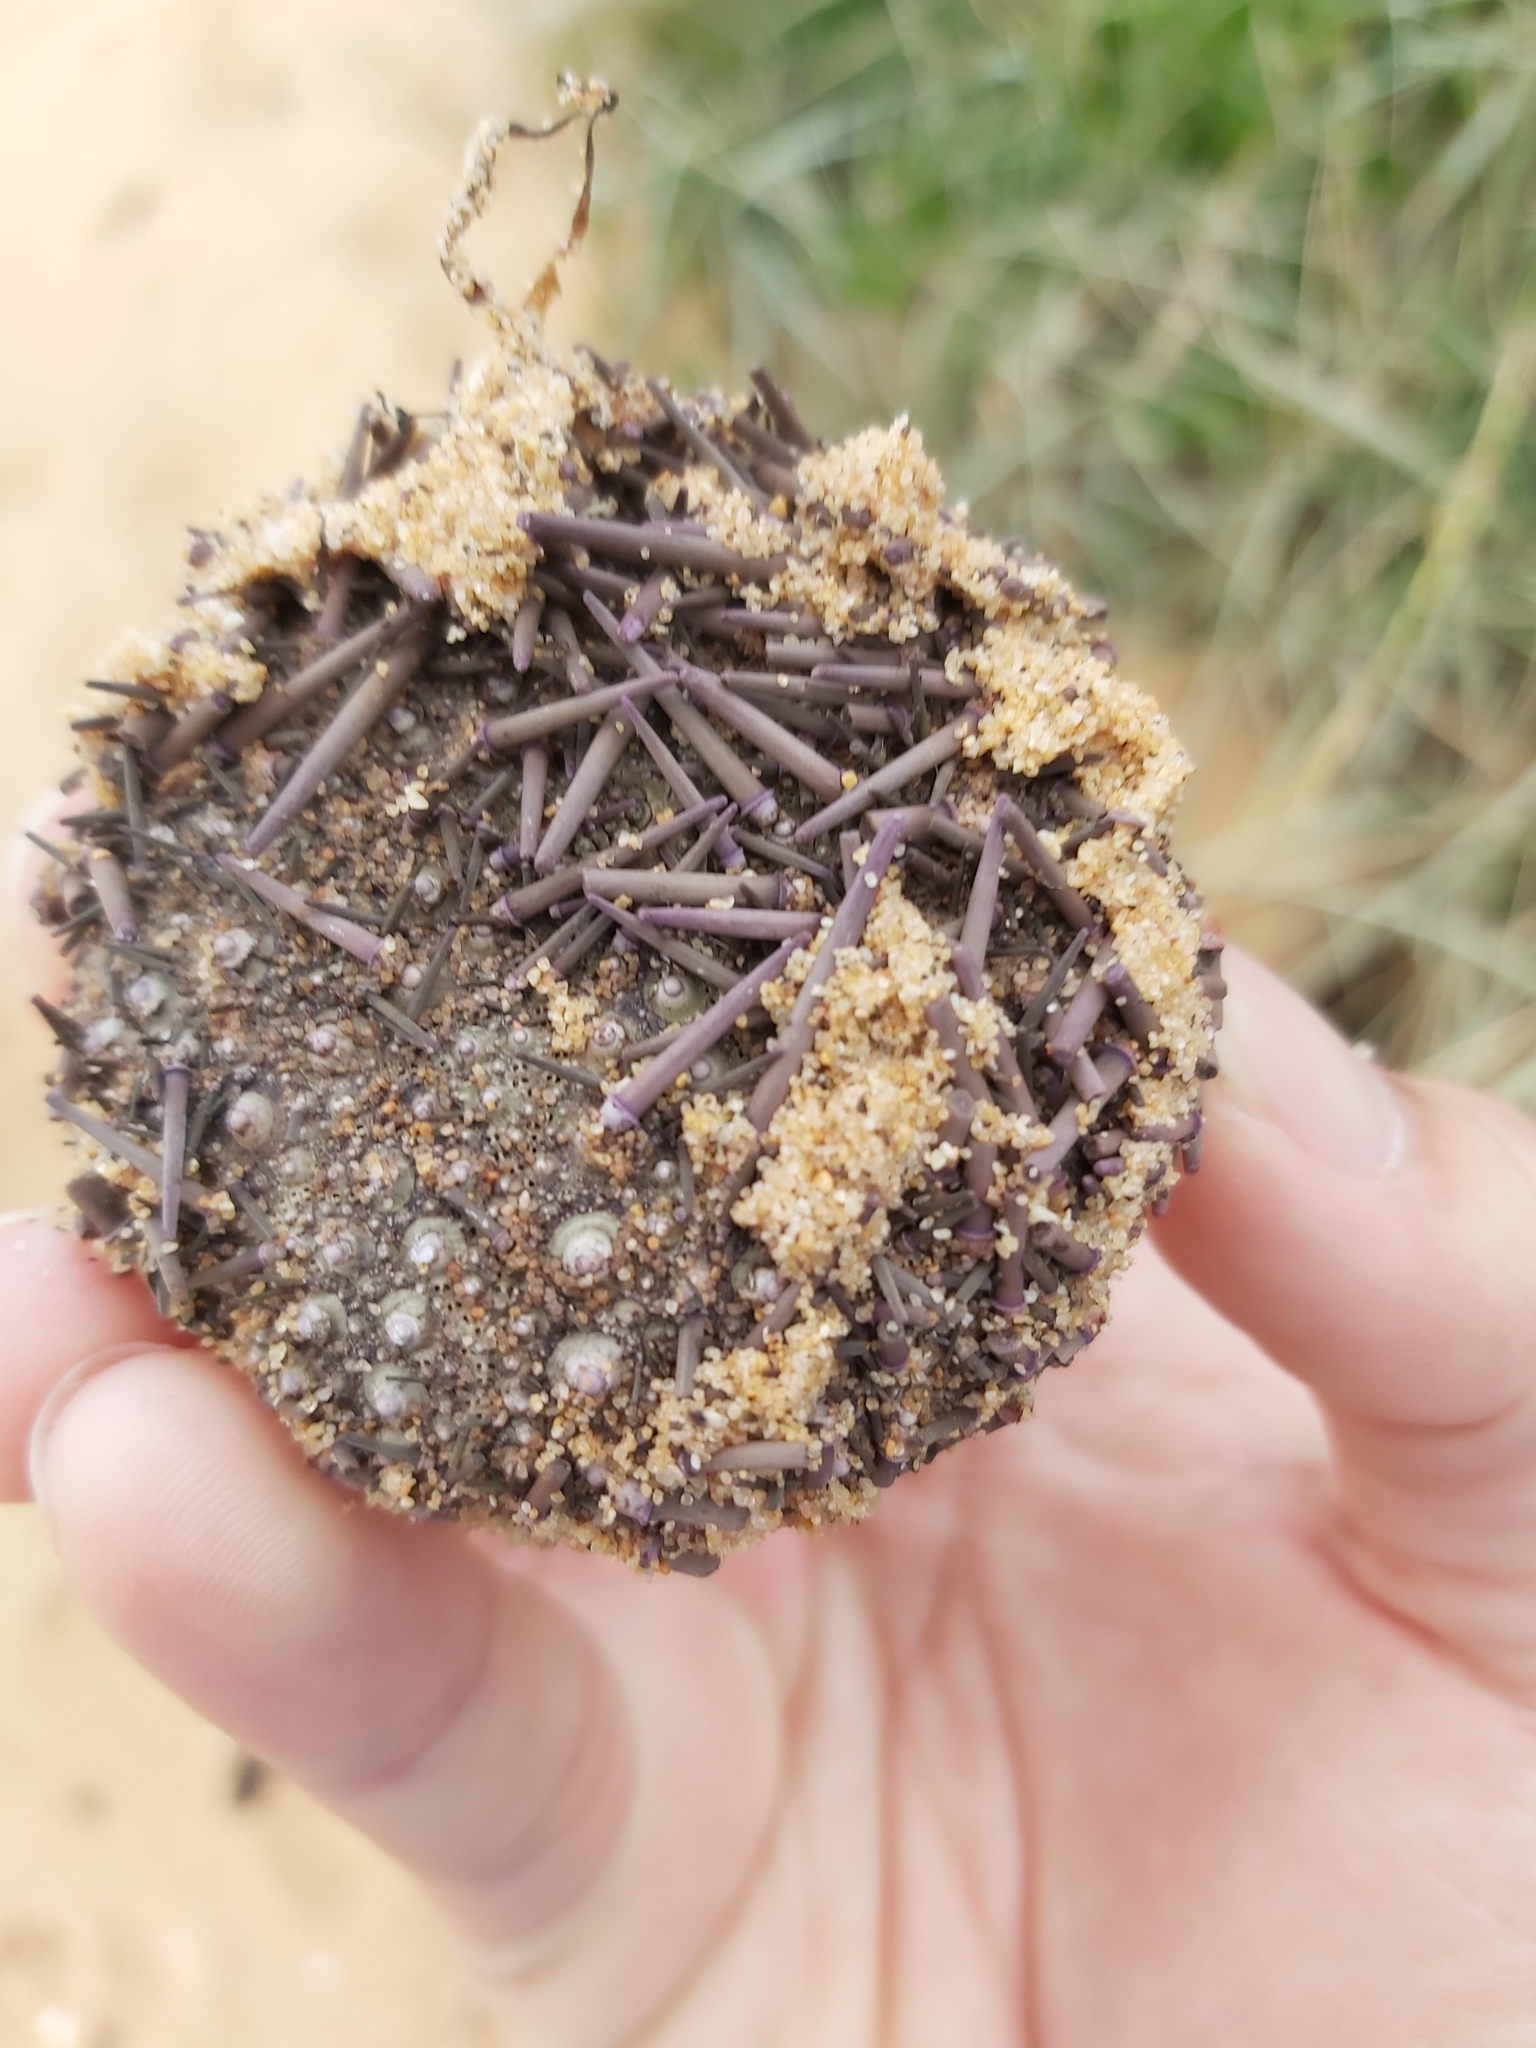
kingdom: Animalia
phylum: Echinodermata
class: Echinoidea
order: Camarodonta
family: Echinometridae
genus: Heliocidaris
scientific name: Heliocidaris erythrogramma
